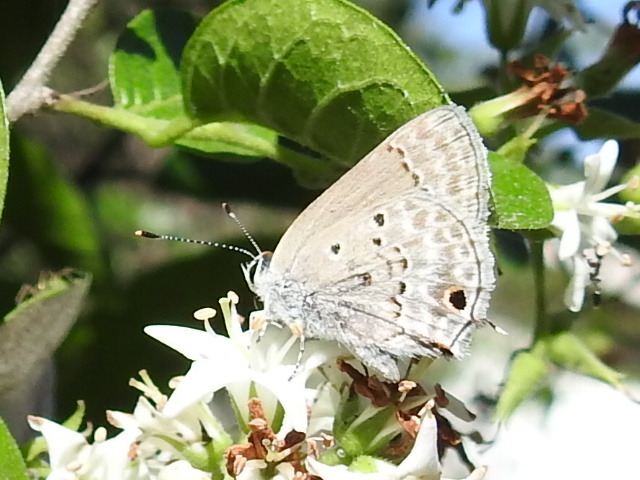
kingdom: Animalia
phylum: Arthropoda
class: Insecta
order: Lepidoptera
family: Lycaenidae
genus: Callicista
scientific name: Callicista columella
